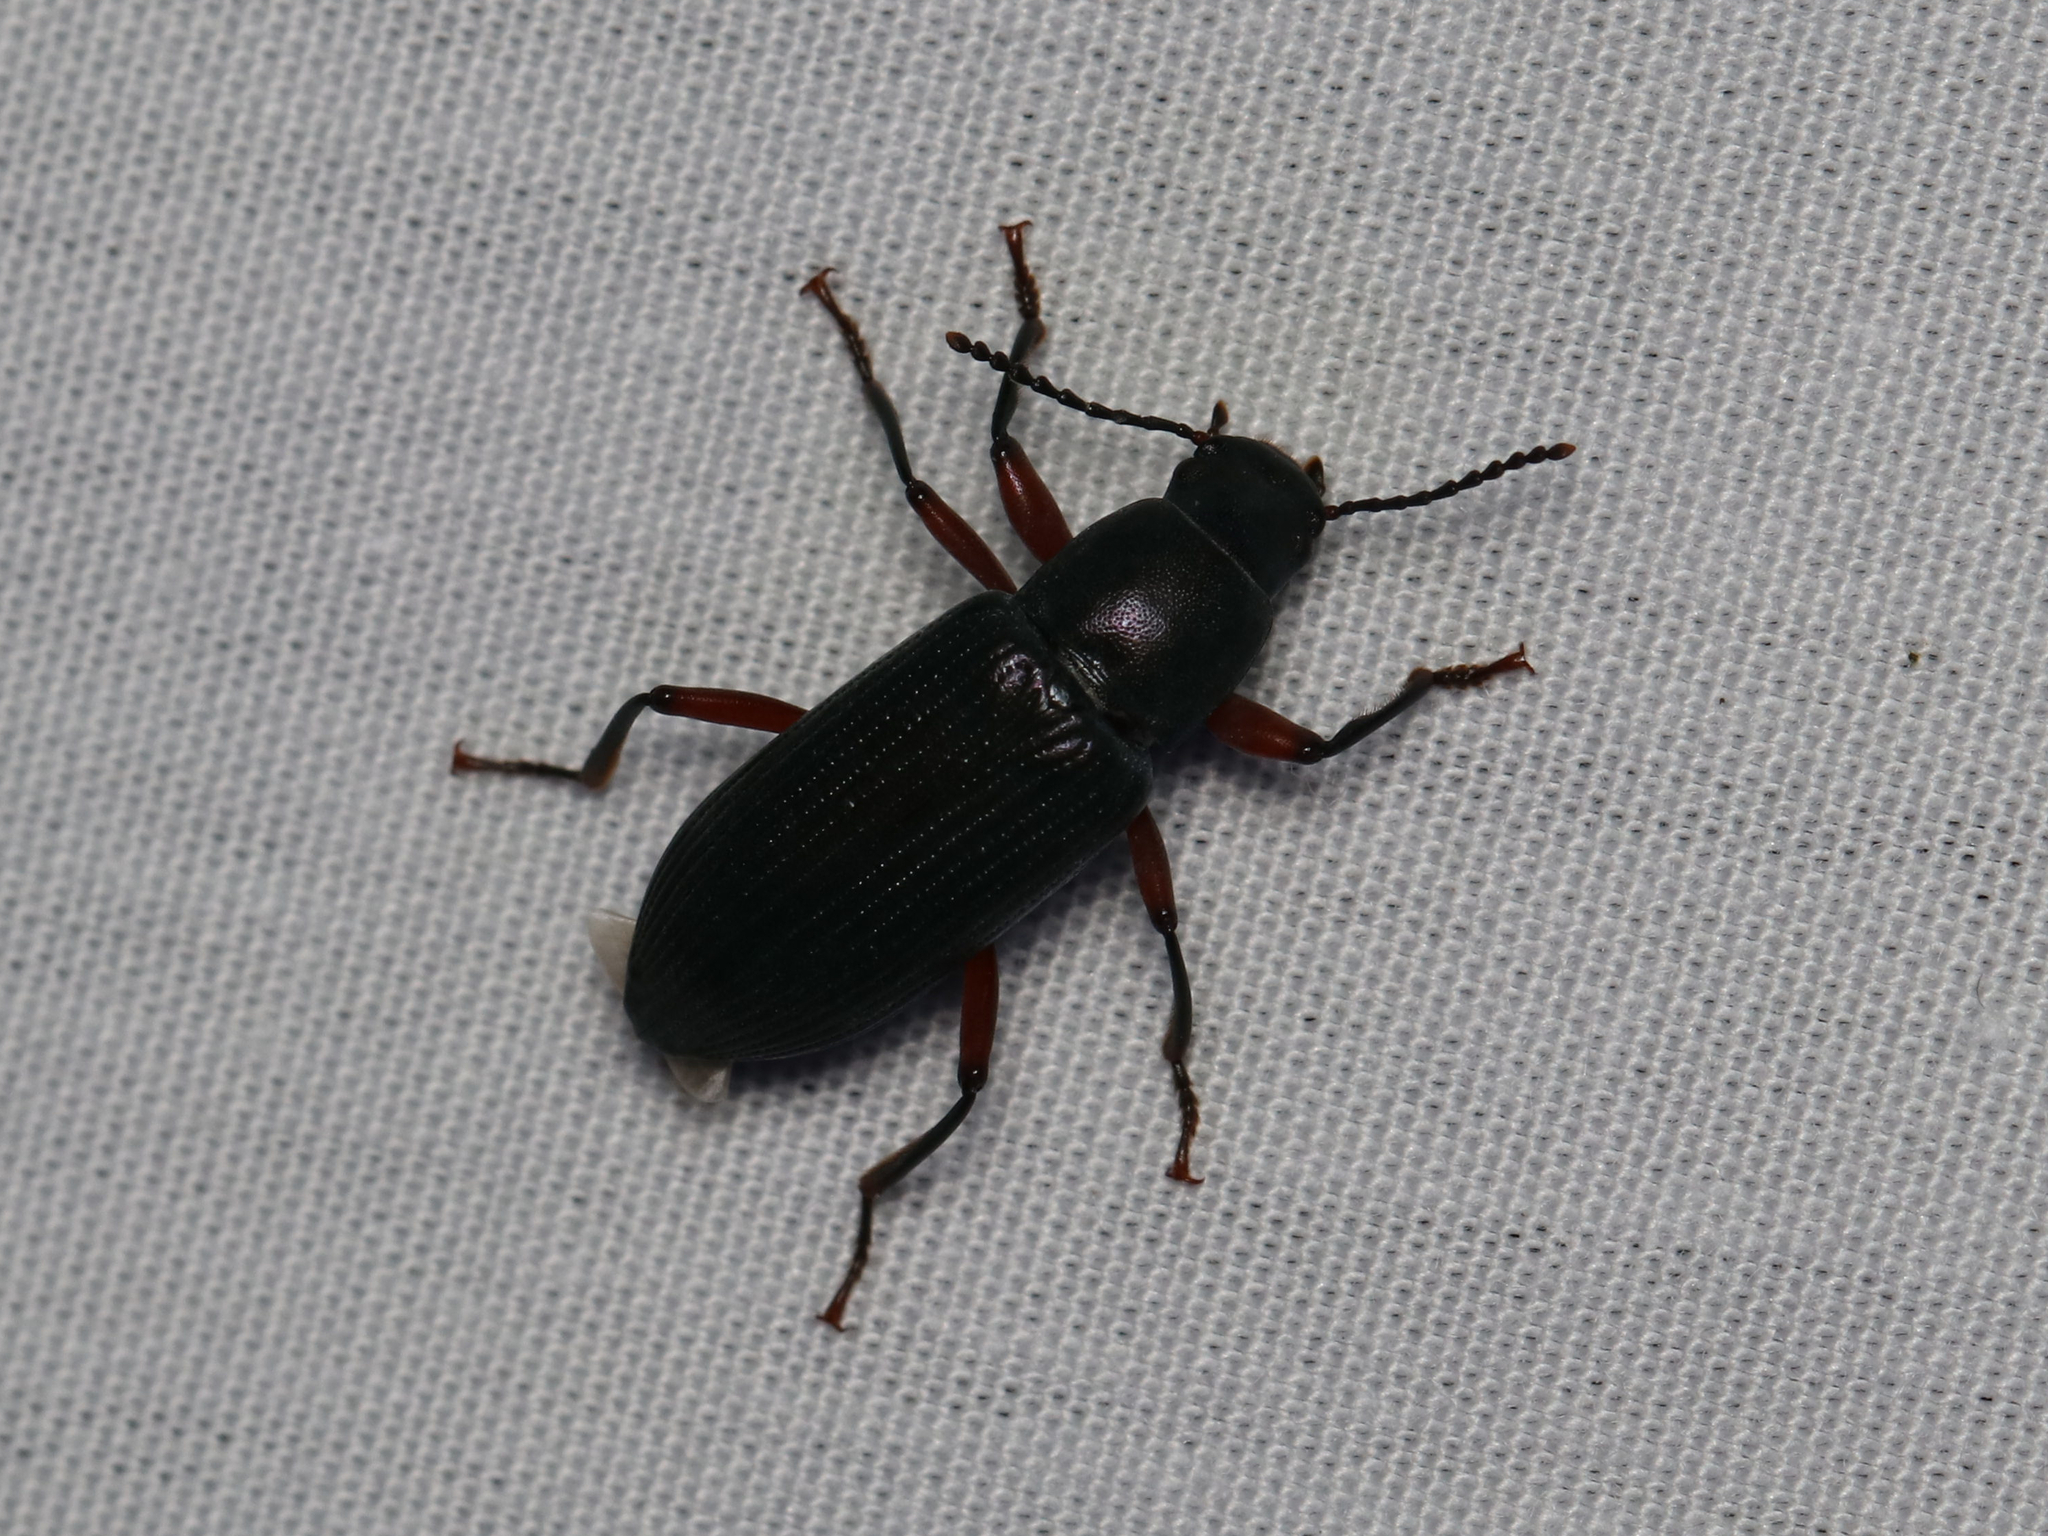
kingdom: Animalia
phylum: Arthropoda
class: Insecta
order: Coleoptera
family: Tenebrionidae
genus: Xylopinus
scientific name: Xylopinus saperdoides
